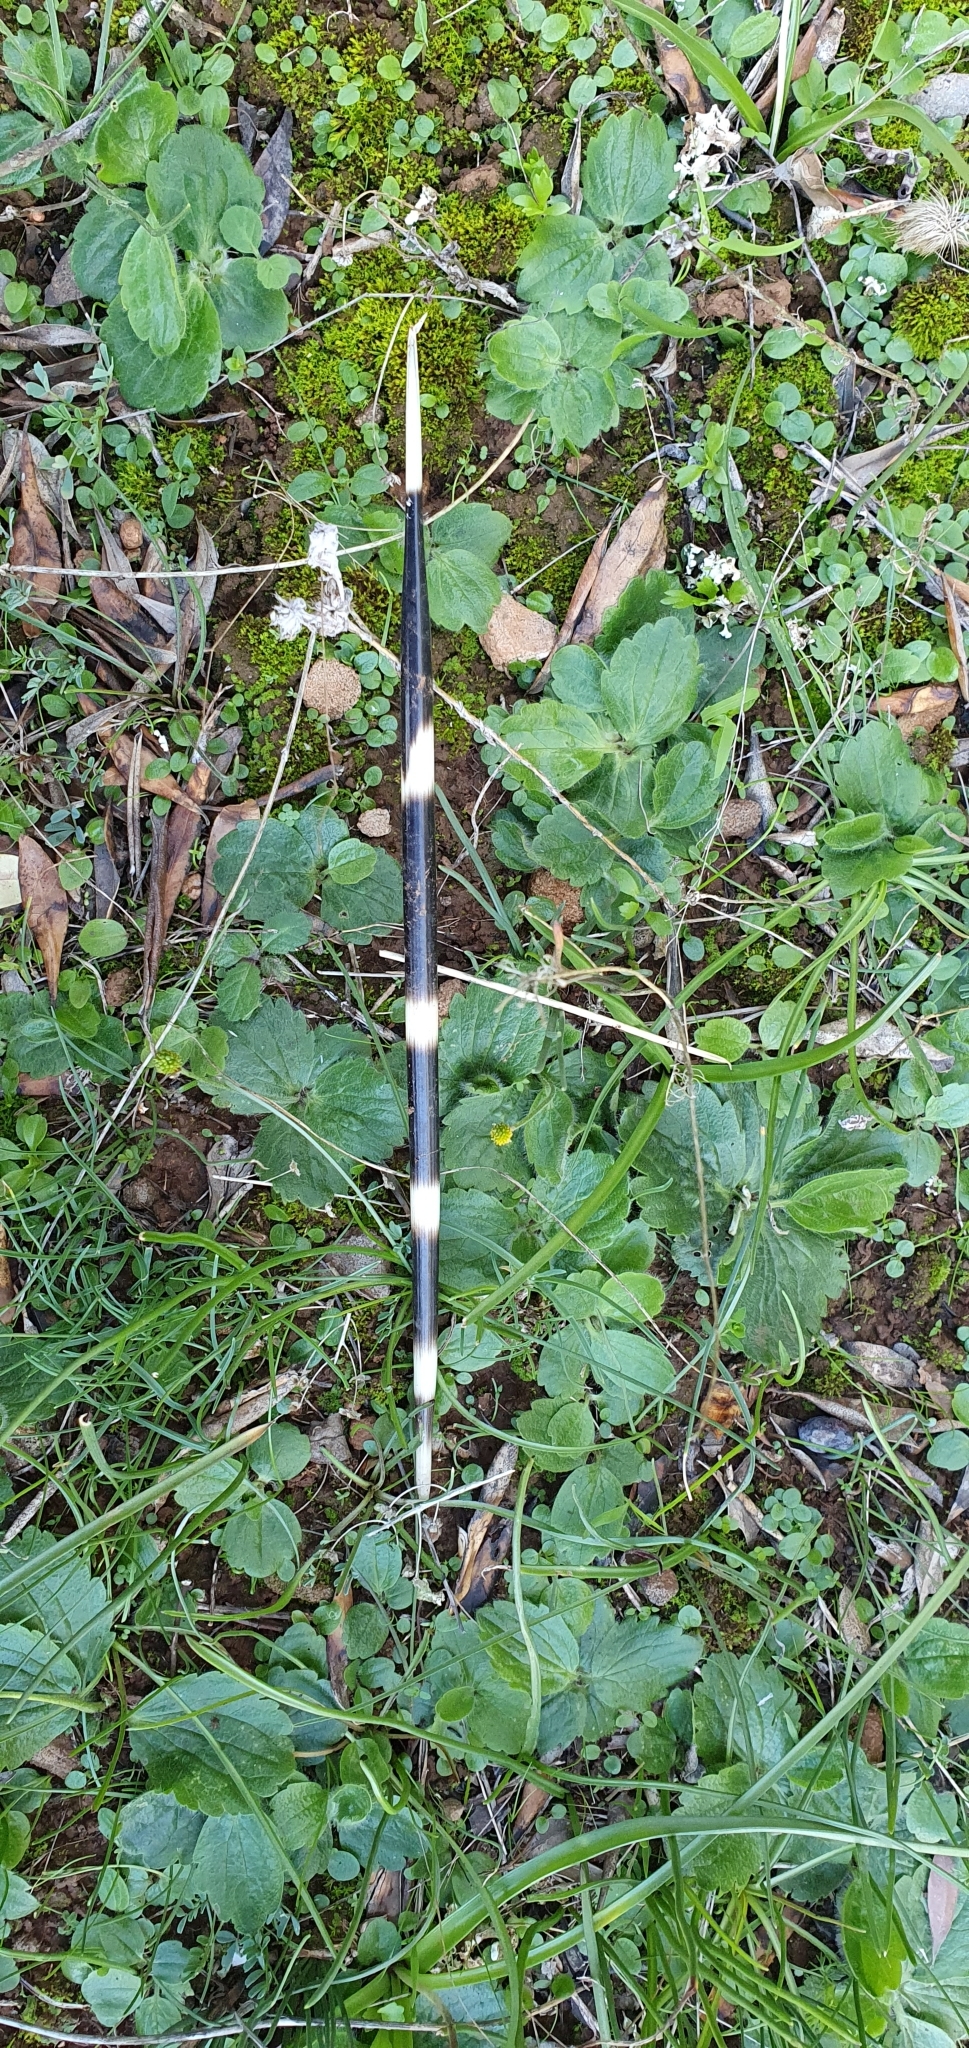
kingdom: Animalia
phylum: Chordata
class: Mammalia
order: Rodentia
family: Hystricidae
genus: Hystrix
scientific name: Hystrix cristata
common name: Crested porcupine
